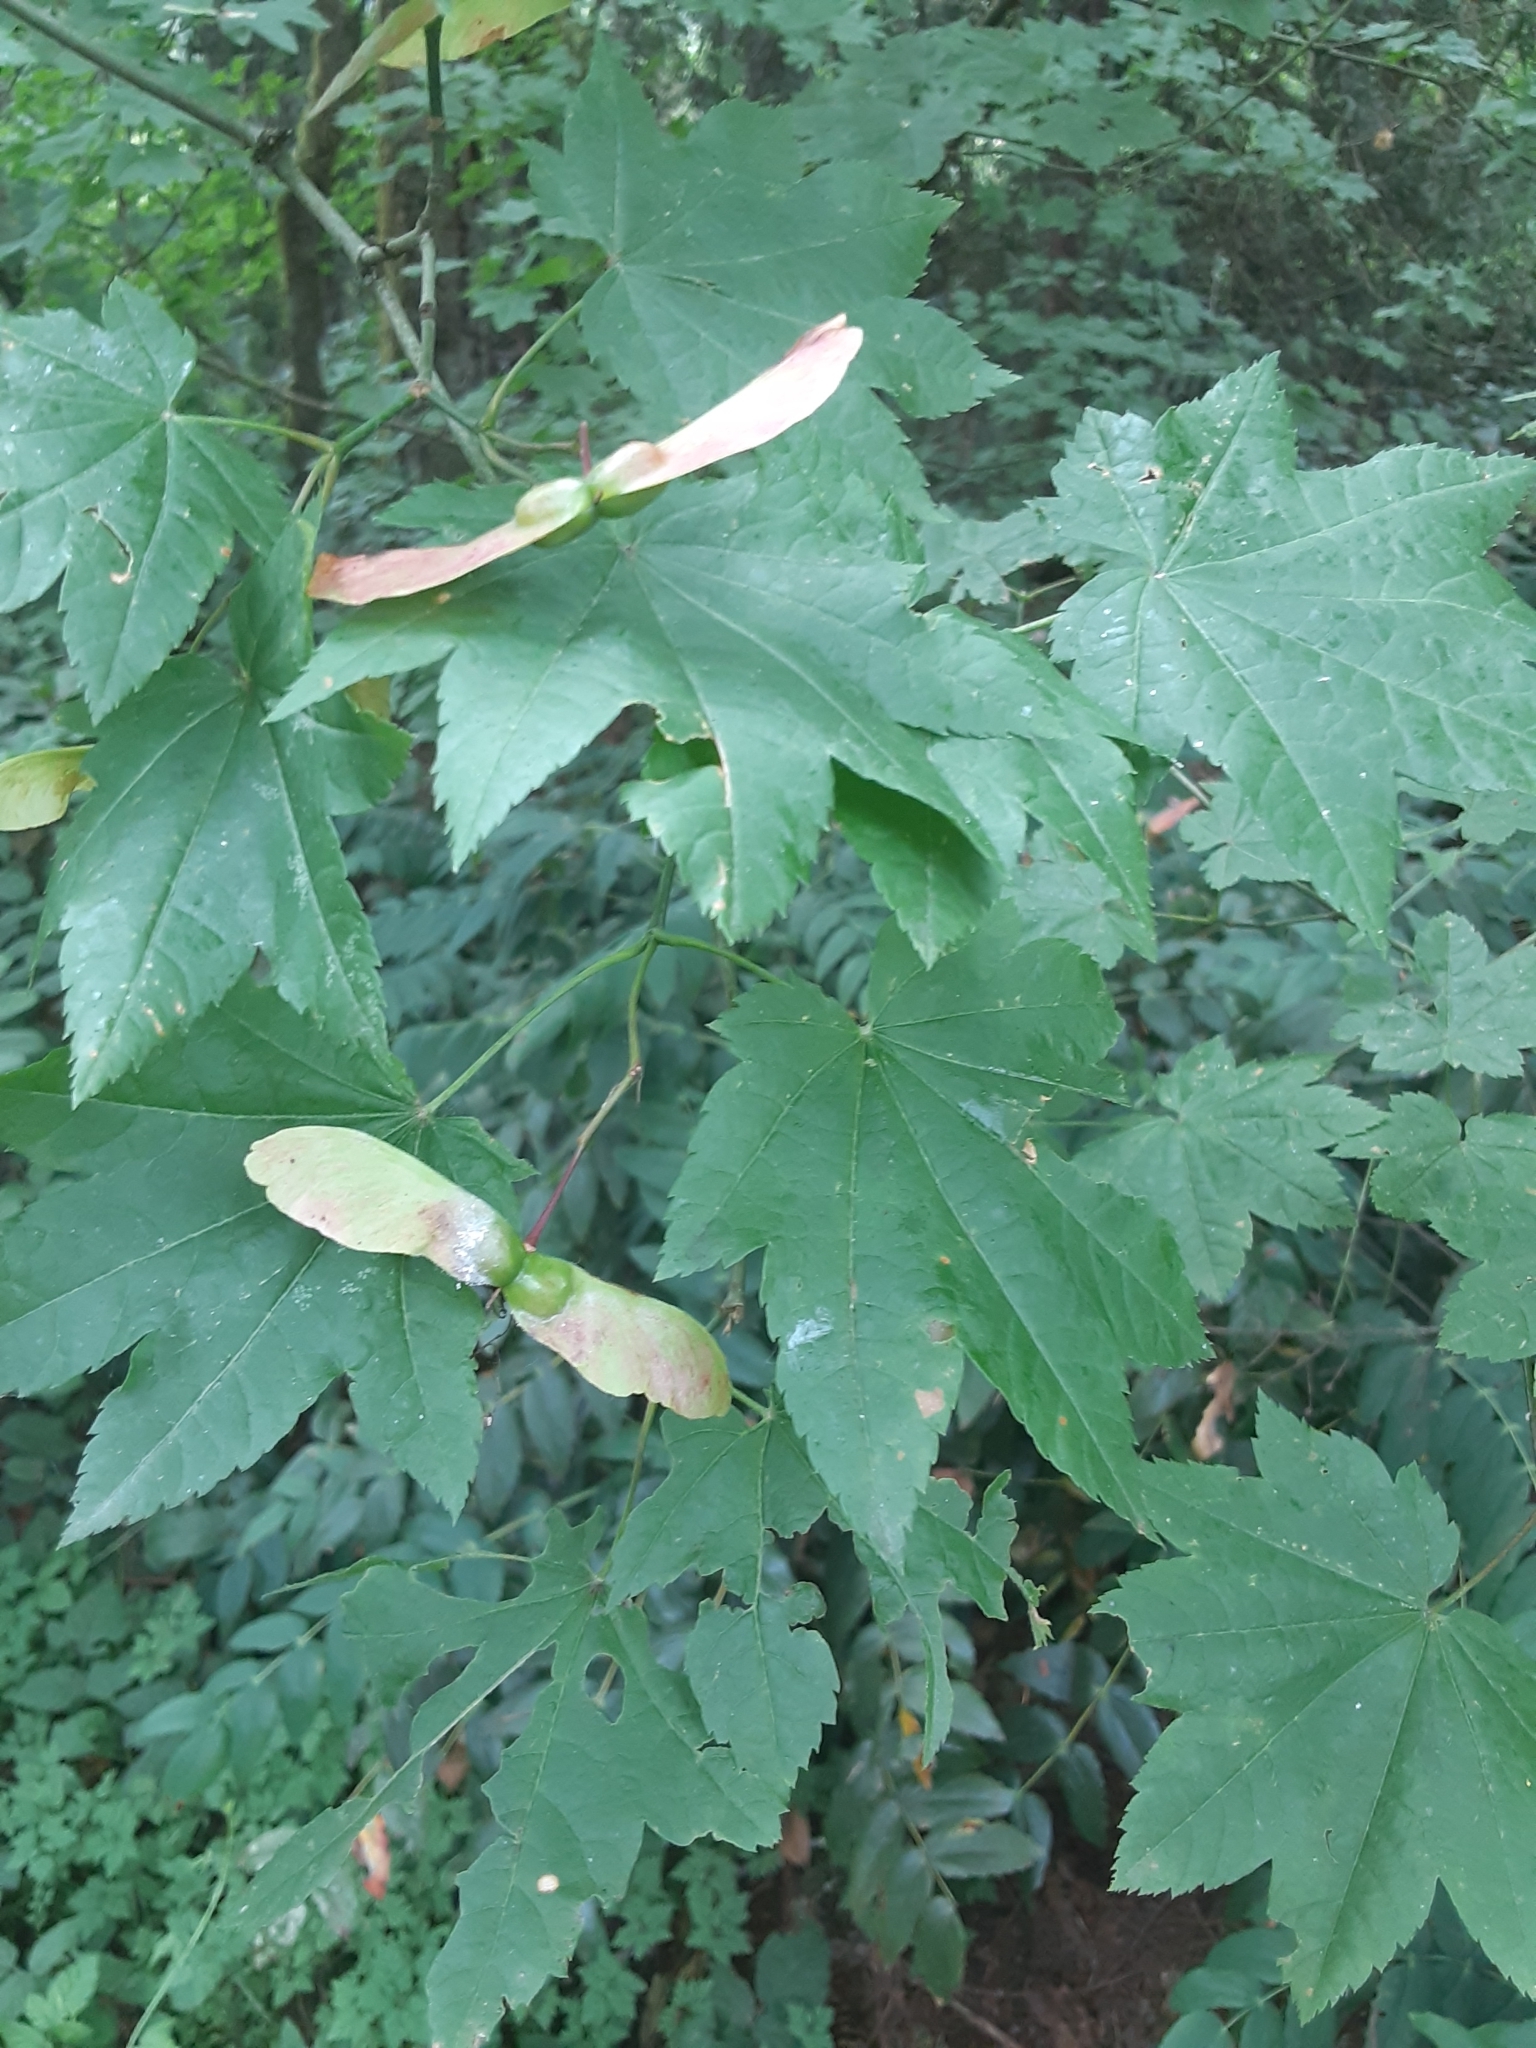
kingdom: Plantae
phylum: Tracheophyta
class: Magnoliopsida
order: Sapindales
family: Sapindaceae
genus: Acer
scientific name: Acer circinatum
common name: Vine maple
